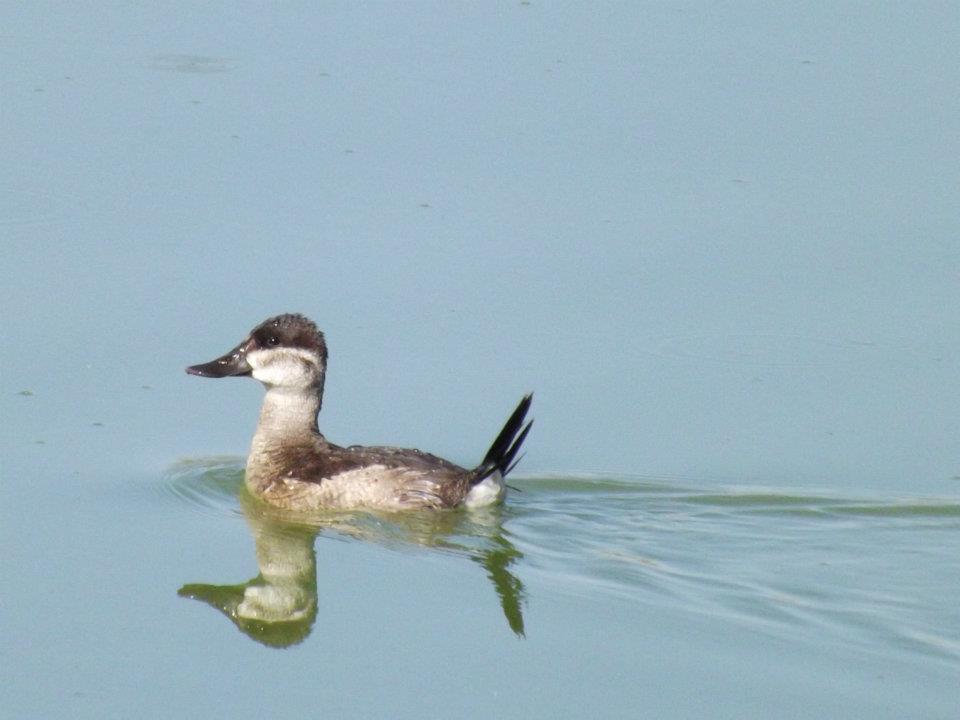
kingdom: Animalia
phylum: Chordata
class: Aves
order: Anseriformes
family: Anatidae
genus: Oxyura
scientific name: Oxyura jamaicensis
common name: Ruddy duck
